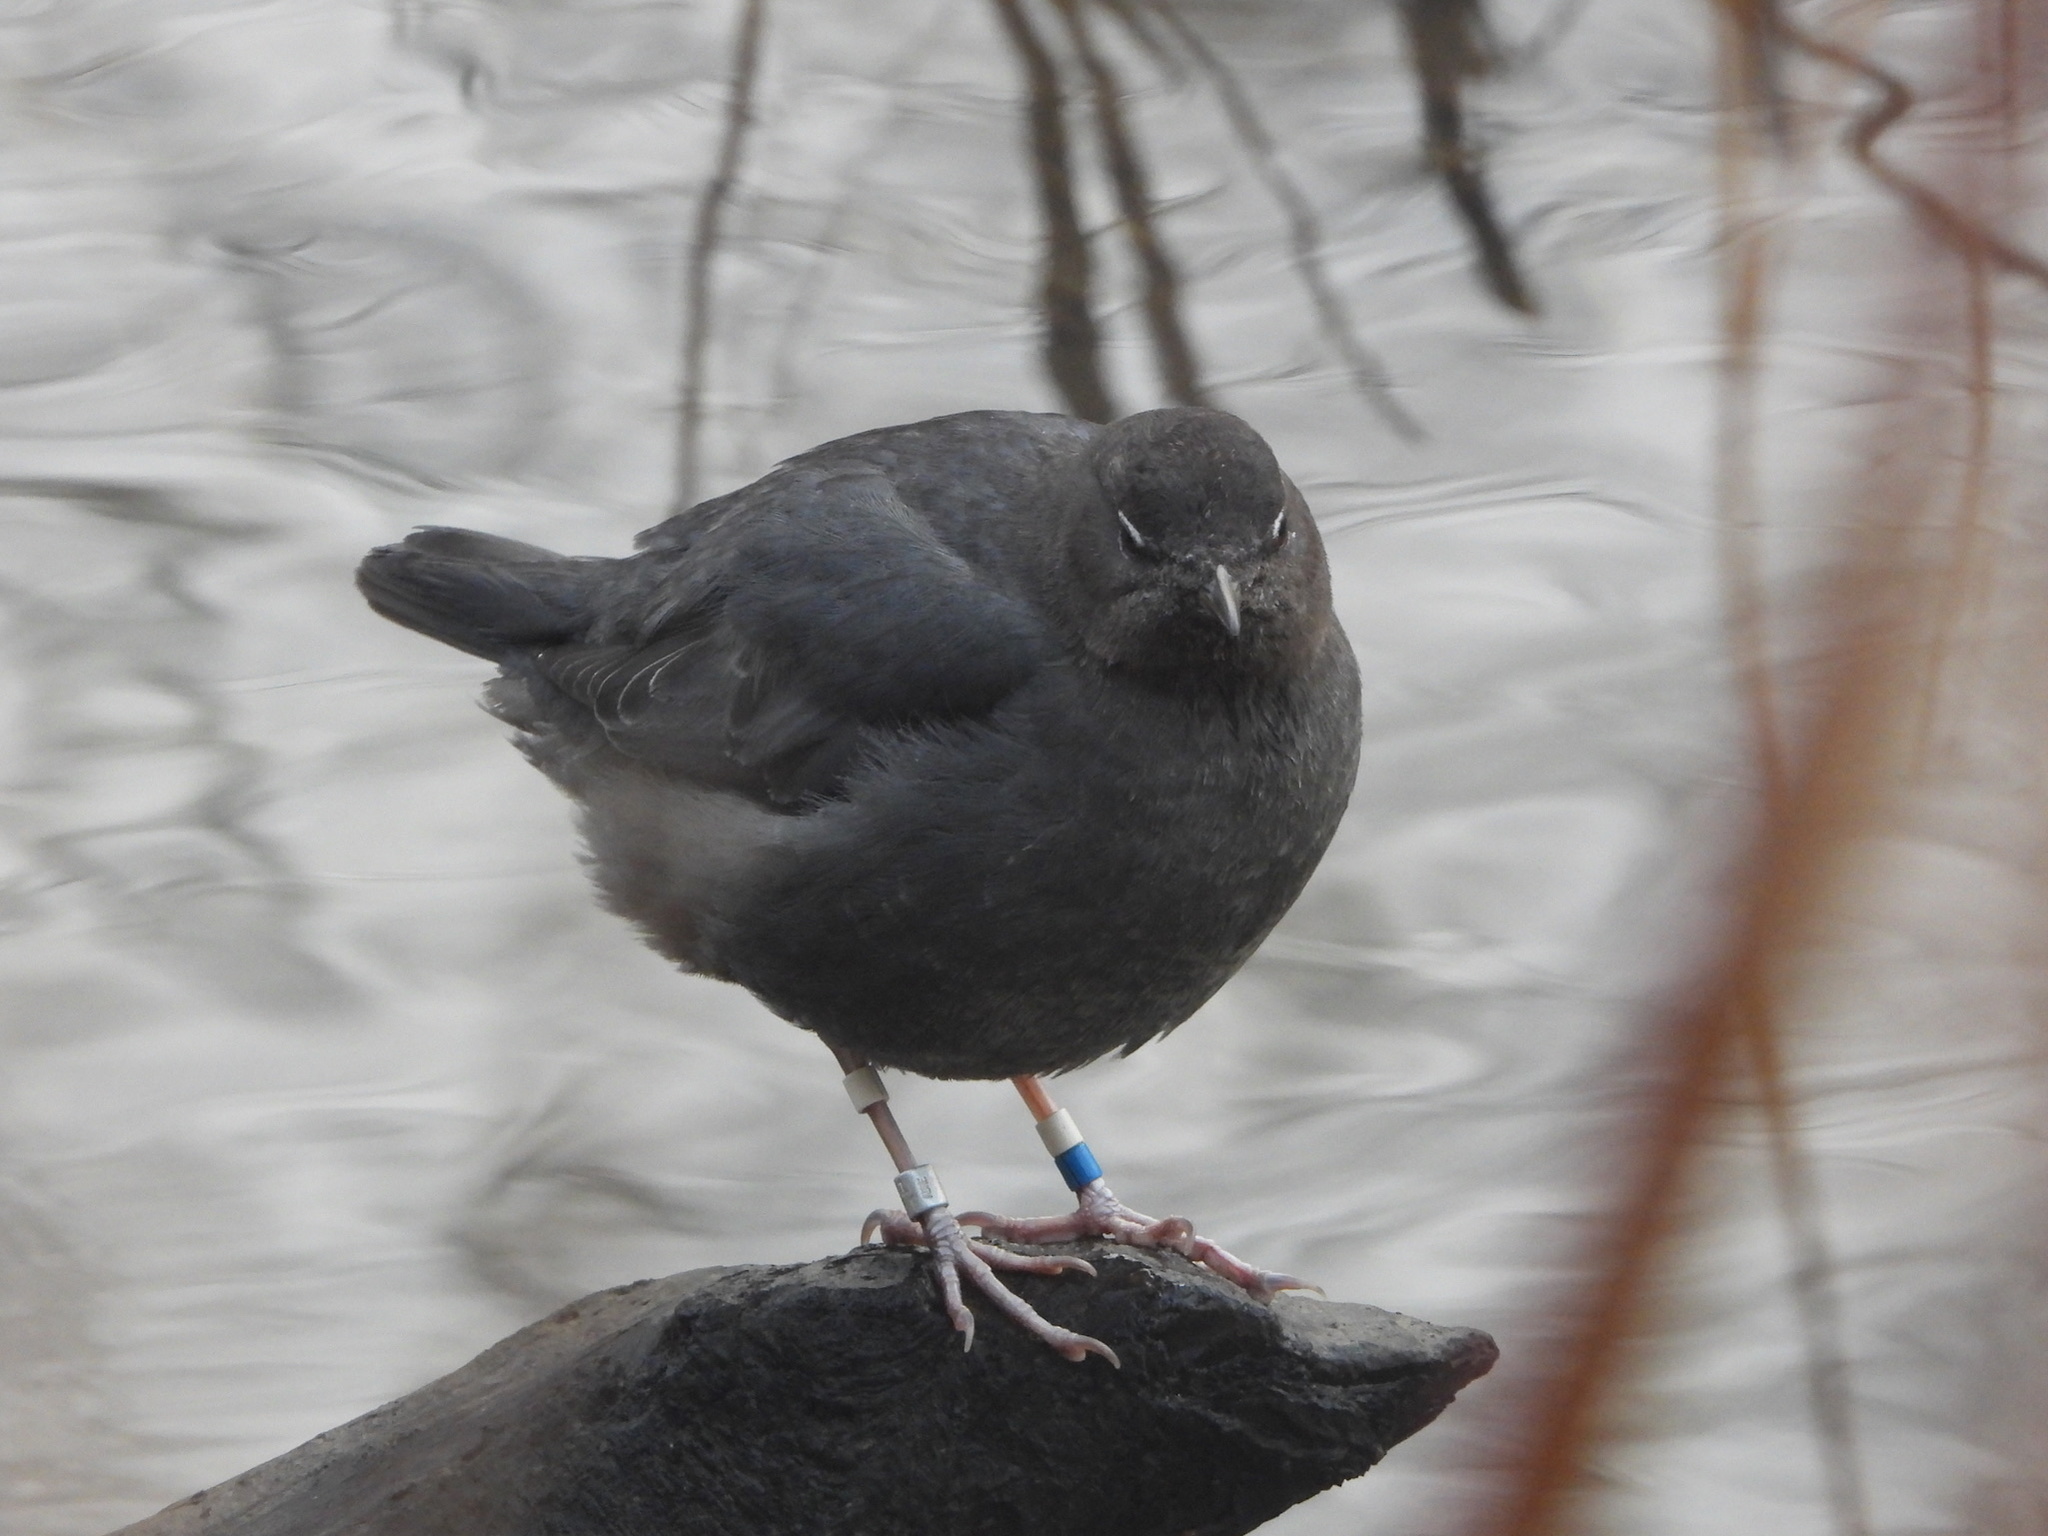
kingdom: Animalia
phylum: Chordata
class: Aves
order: Passeriformes
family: Cinclidae
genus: Cinclus
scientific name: Cinclus mexicanus
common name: American dipper
